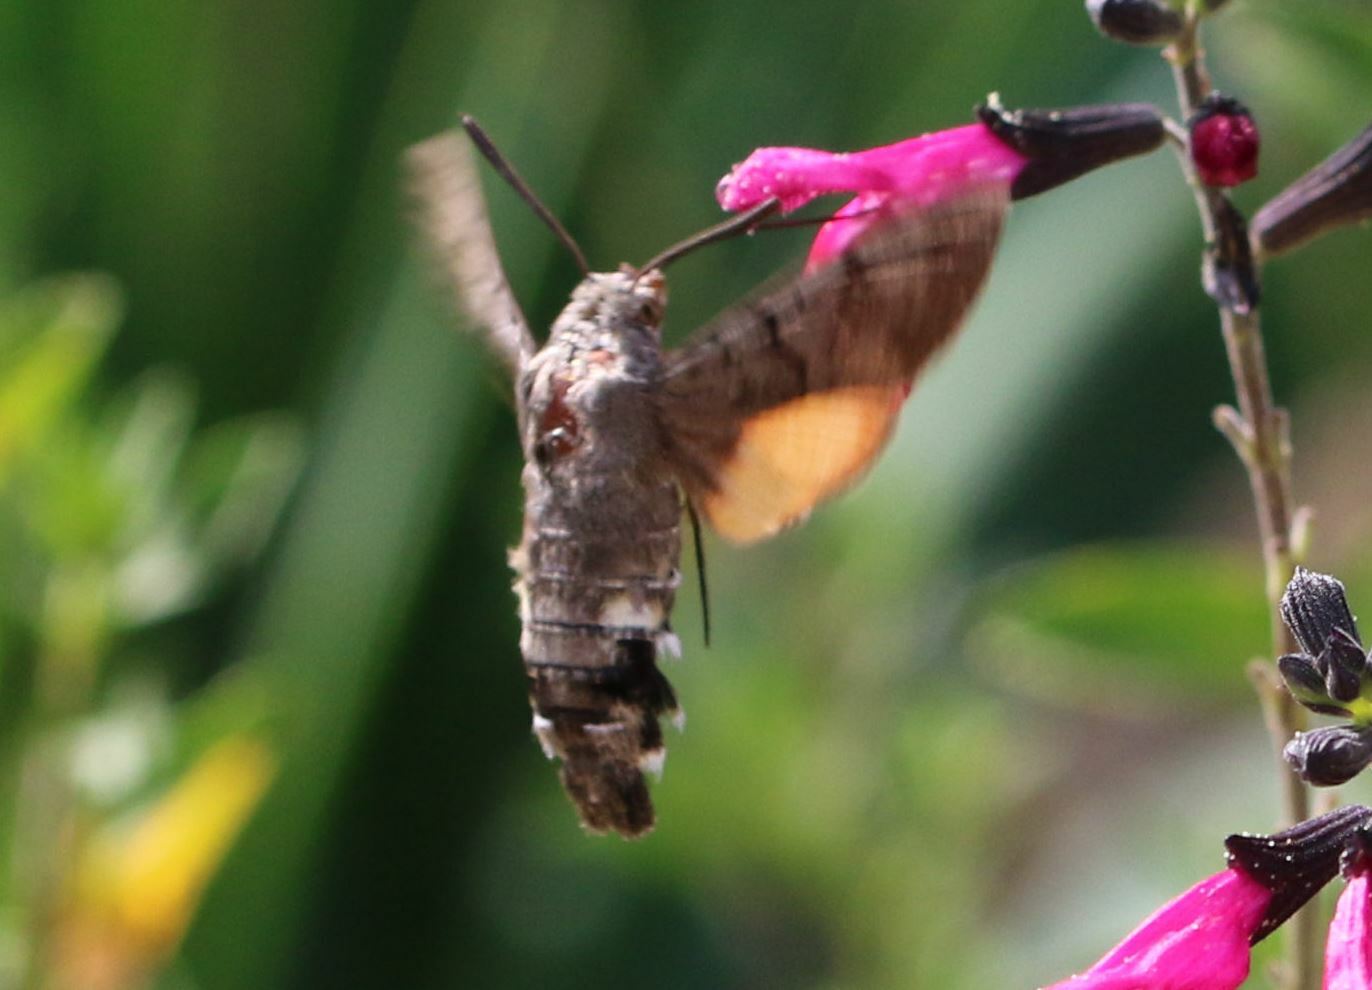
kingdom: Animalia
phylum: Arthropoda
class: Insecta
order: Lepidoptera
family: Sphingidae
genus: Macroglossum
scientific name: Macroglossum stellatarum
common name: Humming-bird hawk-moth
